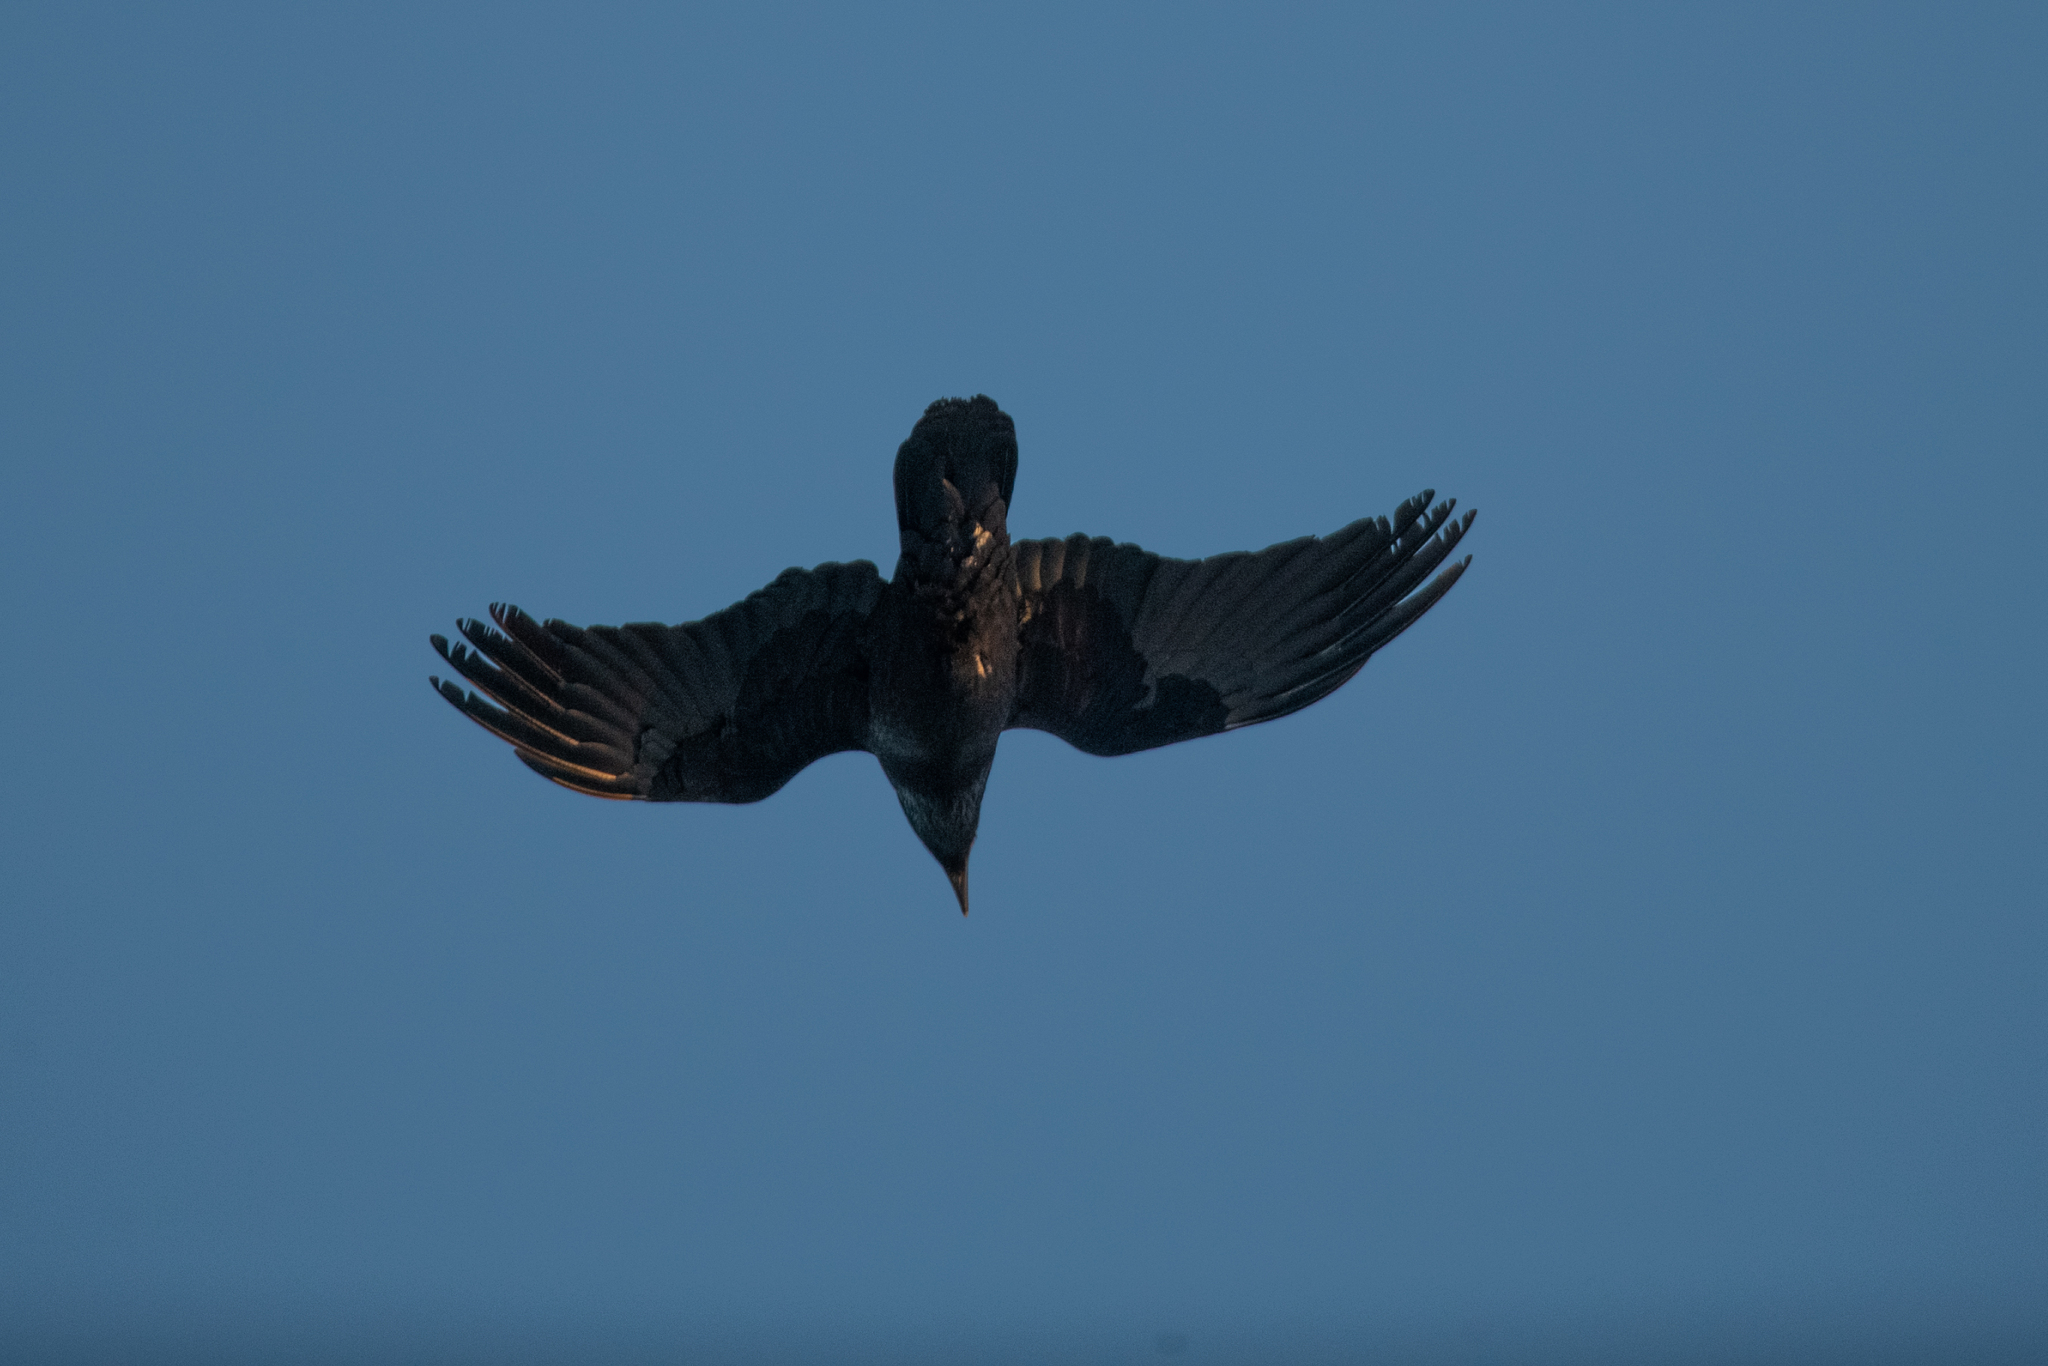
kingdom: Animalia
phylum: Chordata
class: Aves
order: Passeriformes
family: Corvidae
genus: Corvus
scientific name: Corvus corax
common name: Common raven
